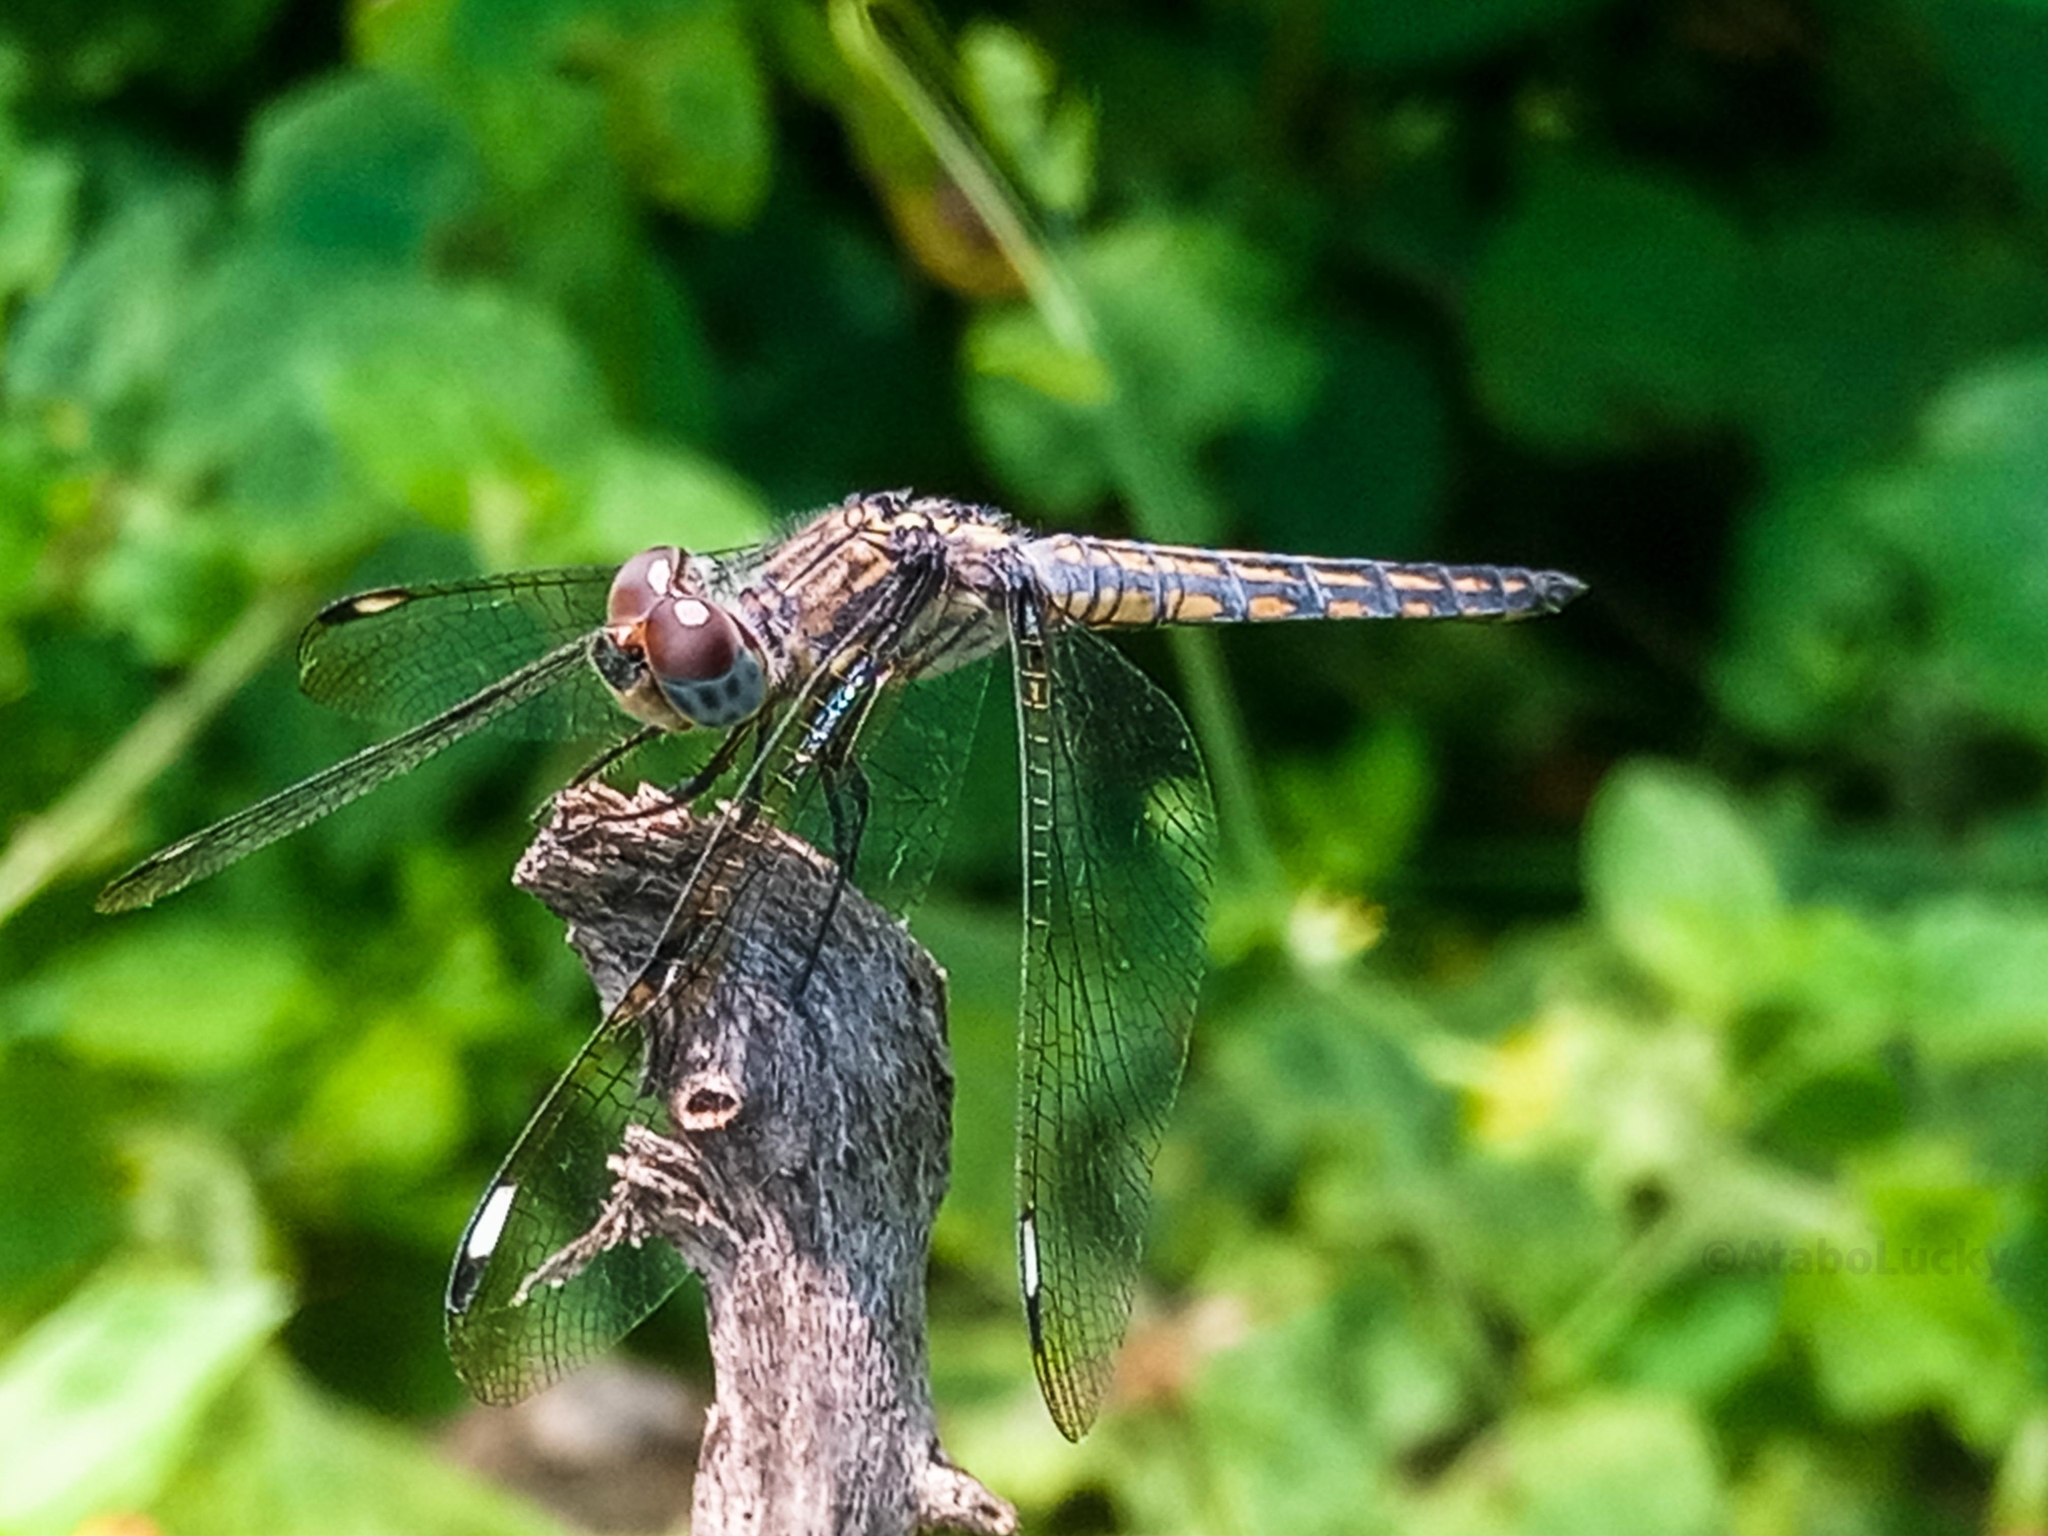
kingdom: Animalia
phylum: Arthropoda
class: Insecta
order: Odonata
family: Libellulidae
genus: Palpopleura
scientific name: Palpopleura deceptor
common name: Deceptive widow
